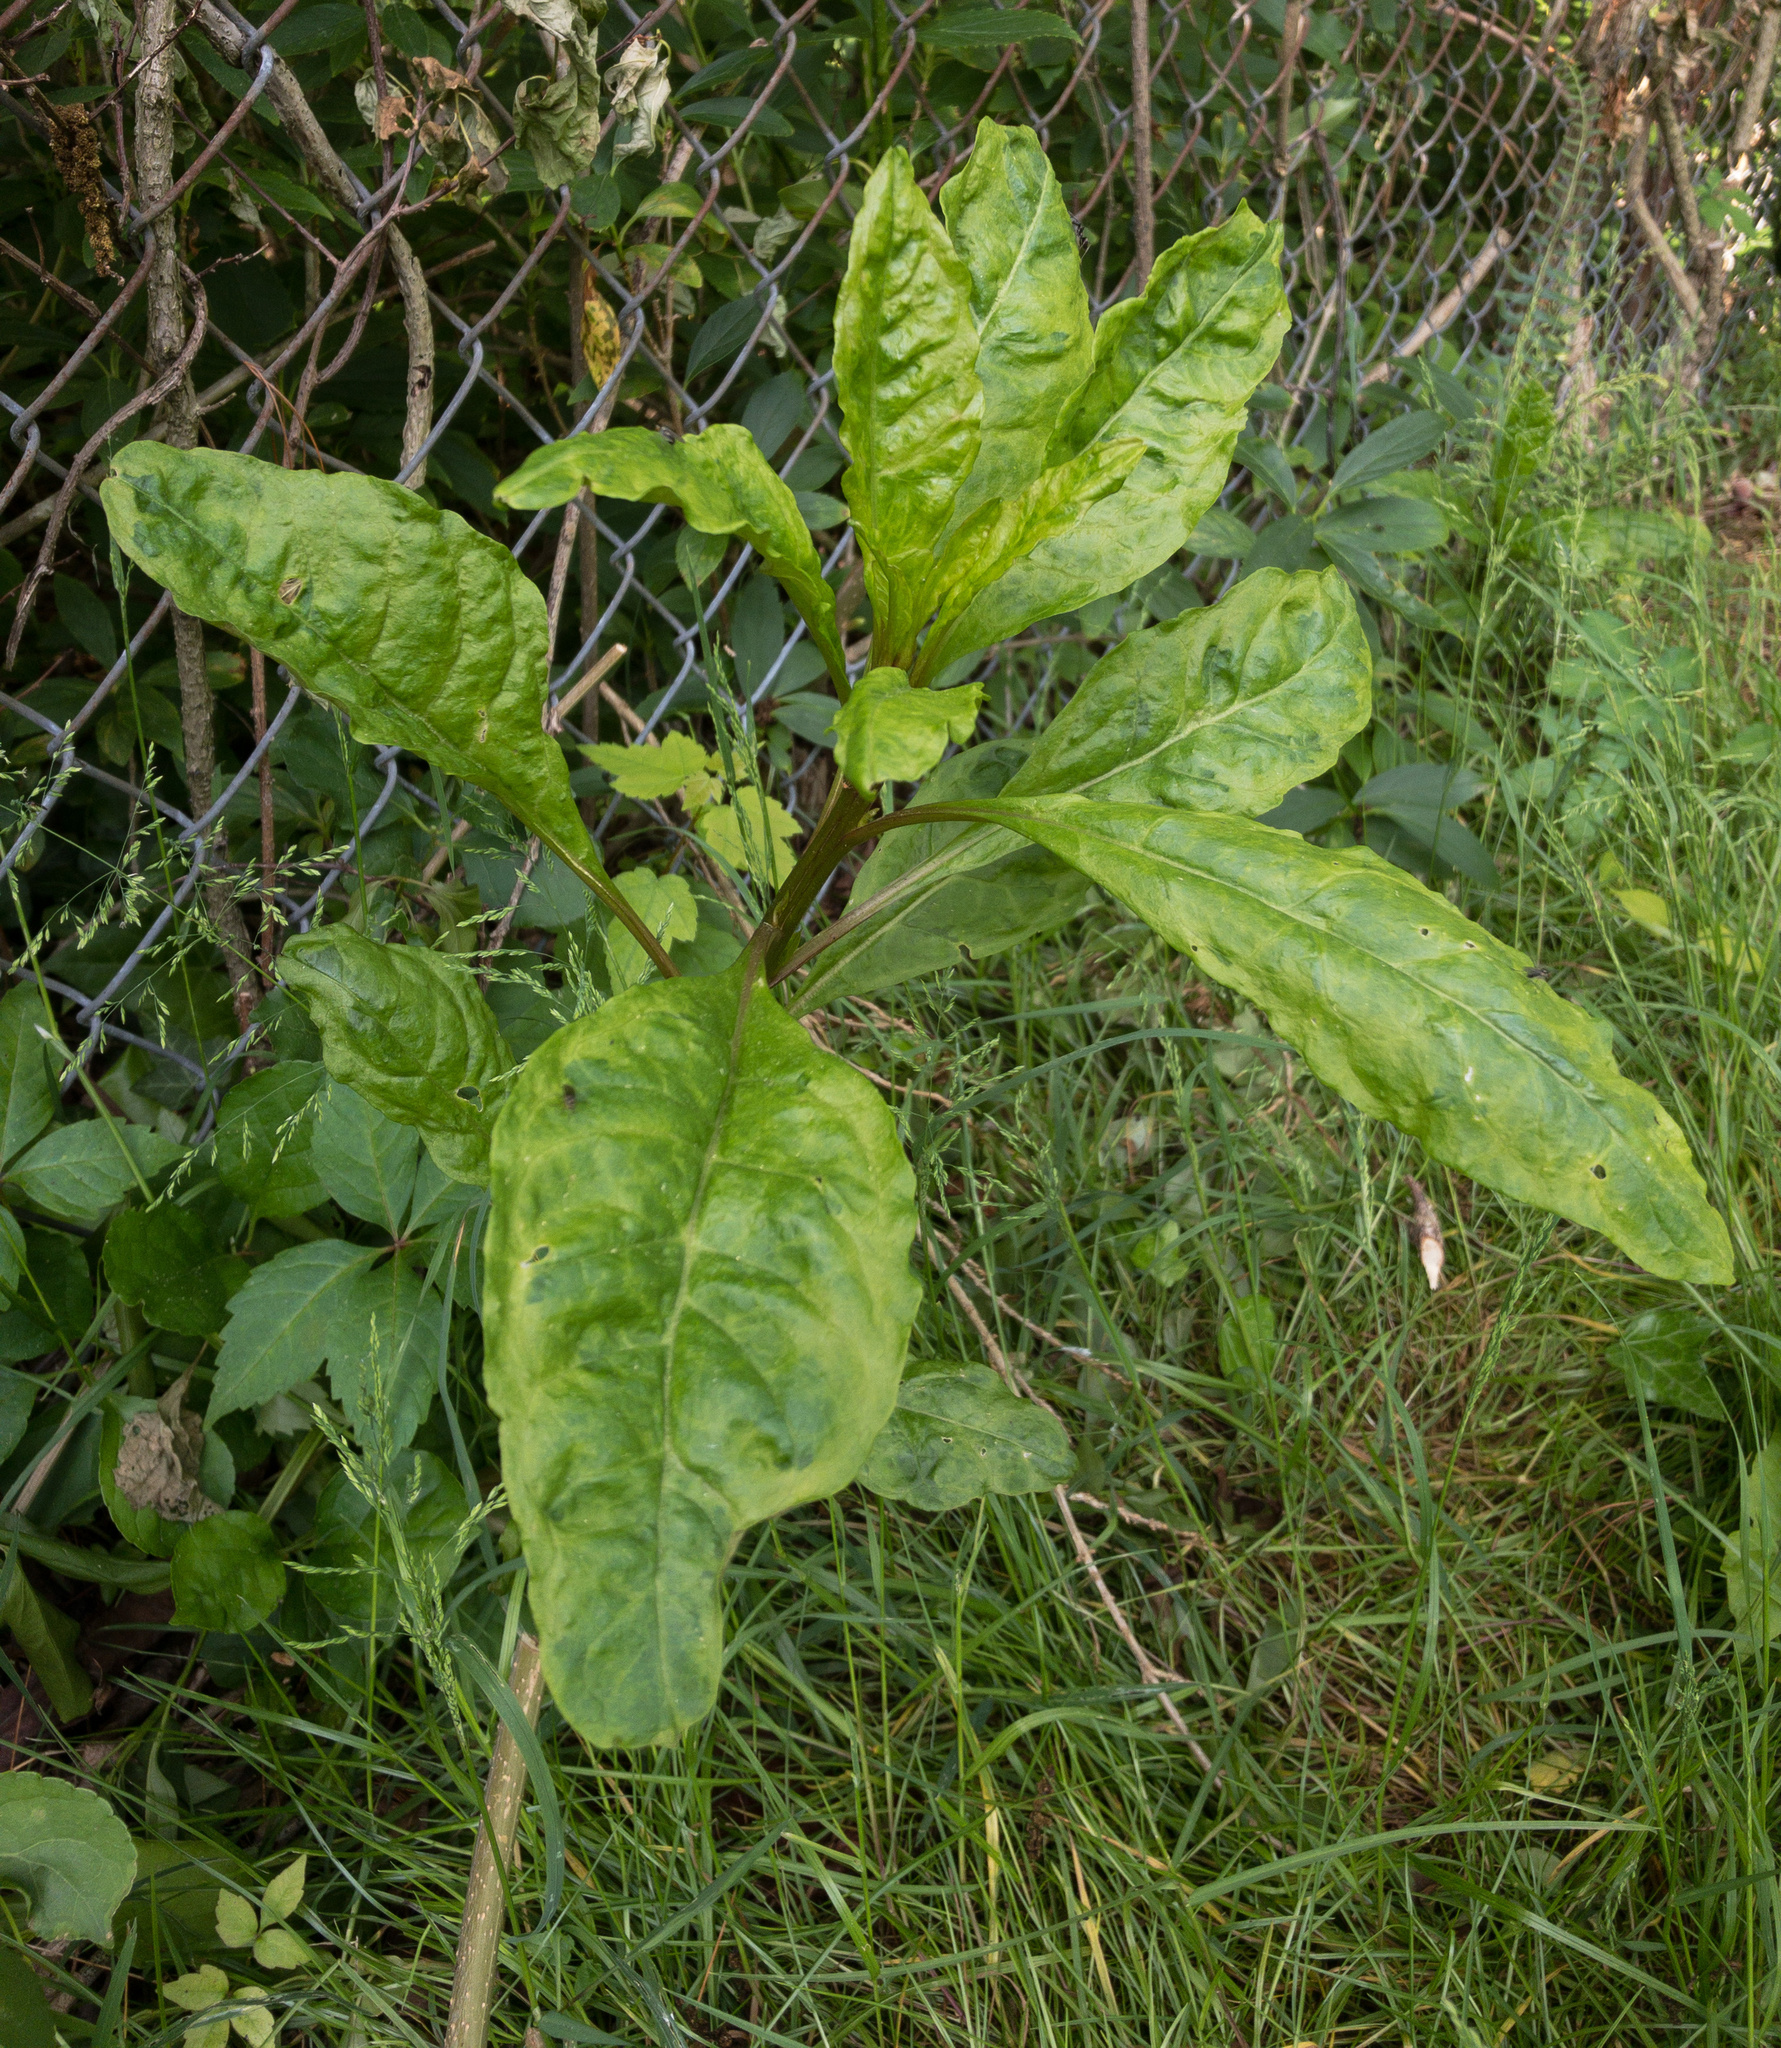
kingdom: Plantae
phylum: Tracheophyta
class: Magnoliopsida
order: Caryophyllales
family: Phytolaccaceae
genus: Phytolacca
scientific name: Phytolacca americana
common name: American pokeweed
